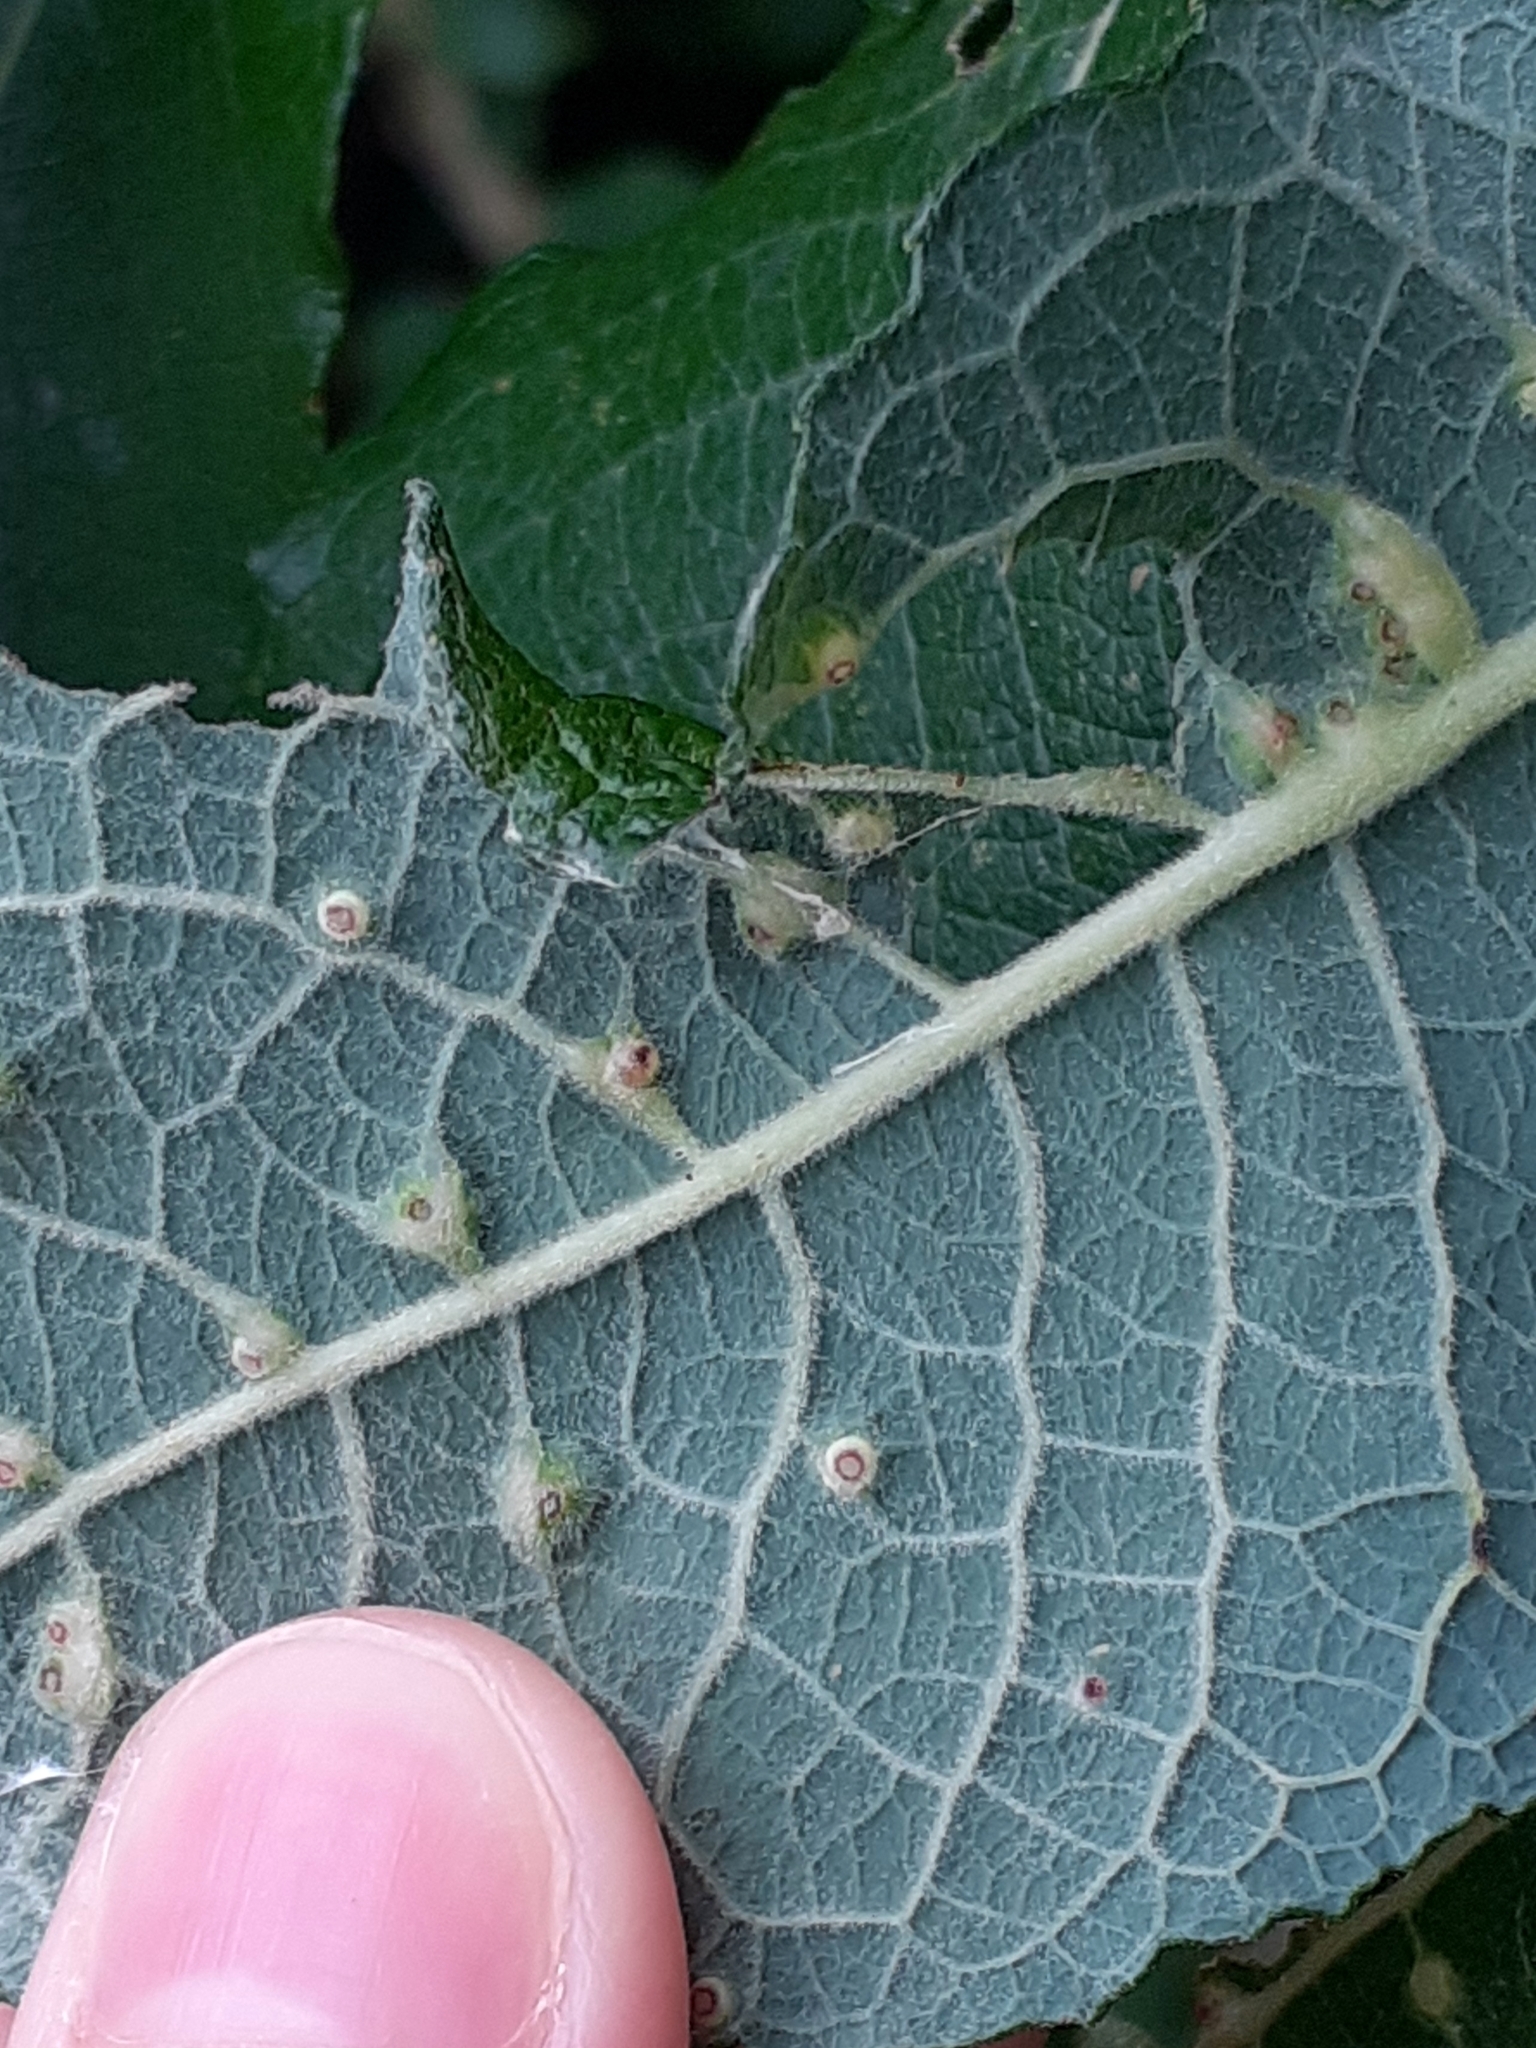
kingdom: Animalia
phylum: Arthropoda
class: Insecta
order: Diptera
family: Cecidomyiidae
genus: Iteomyia
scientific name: Iteomyia capreae
